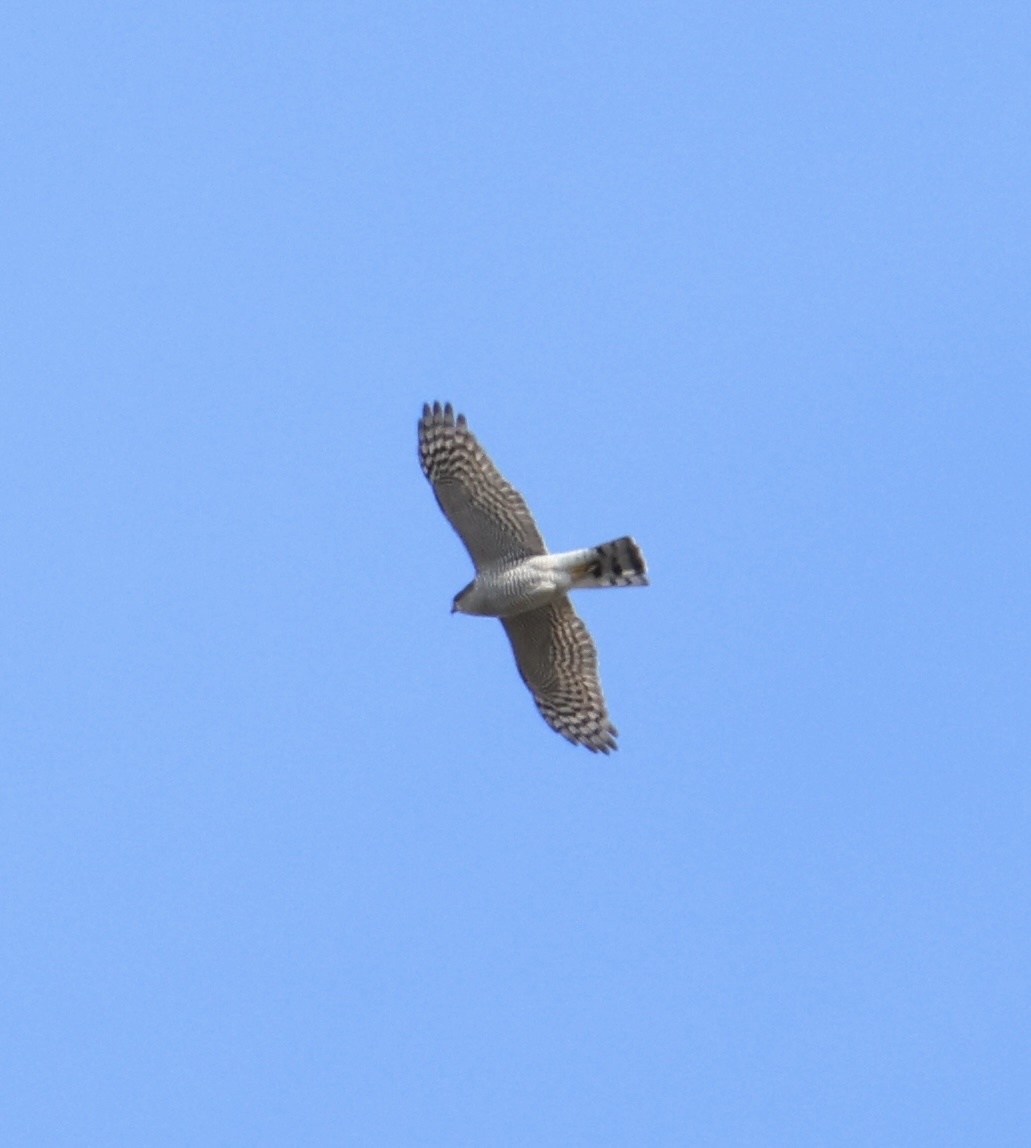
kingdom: Animalia
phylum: Chordata
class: Aves
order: Accipitriformes
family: Accipitridae
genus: Accipiter
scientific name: Accipiter nisus
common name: Eurasian sparrowhawk
